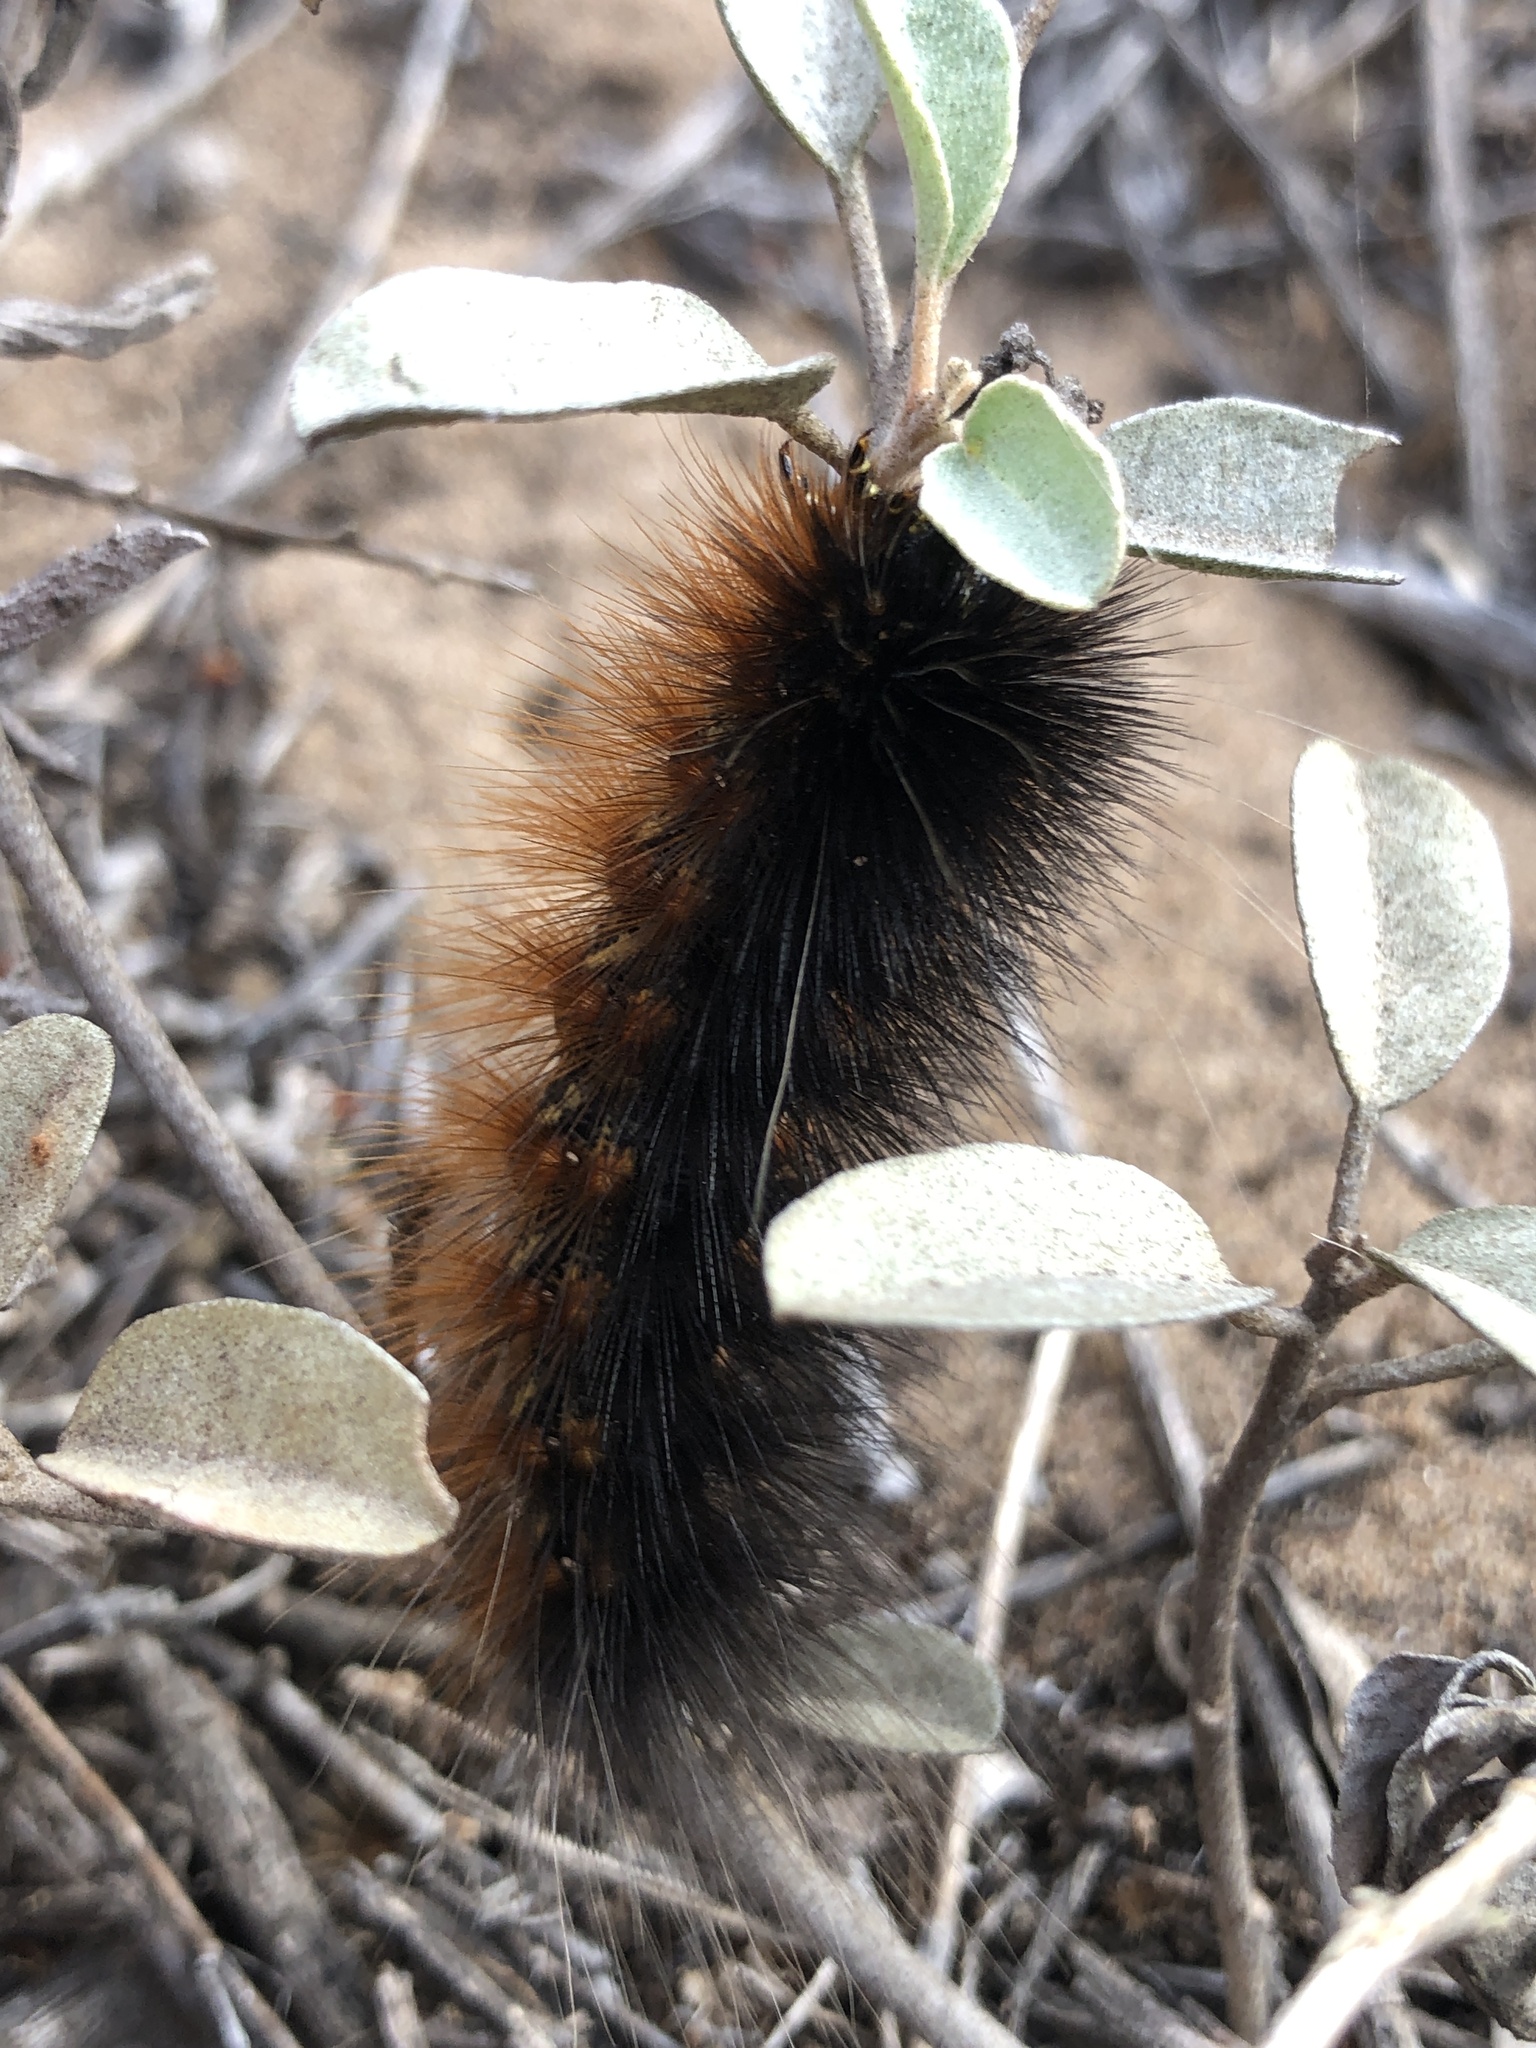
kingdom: Animalia
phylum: Arthropoda
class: Insecta
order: Lepidoptera
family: Erebidae
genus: Estigmene
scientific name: Estigmene acrea
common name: Salt marsh moth
